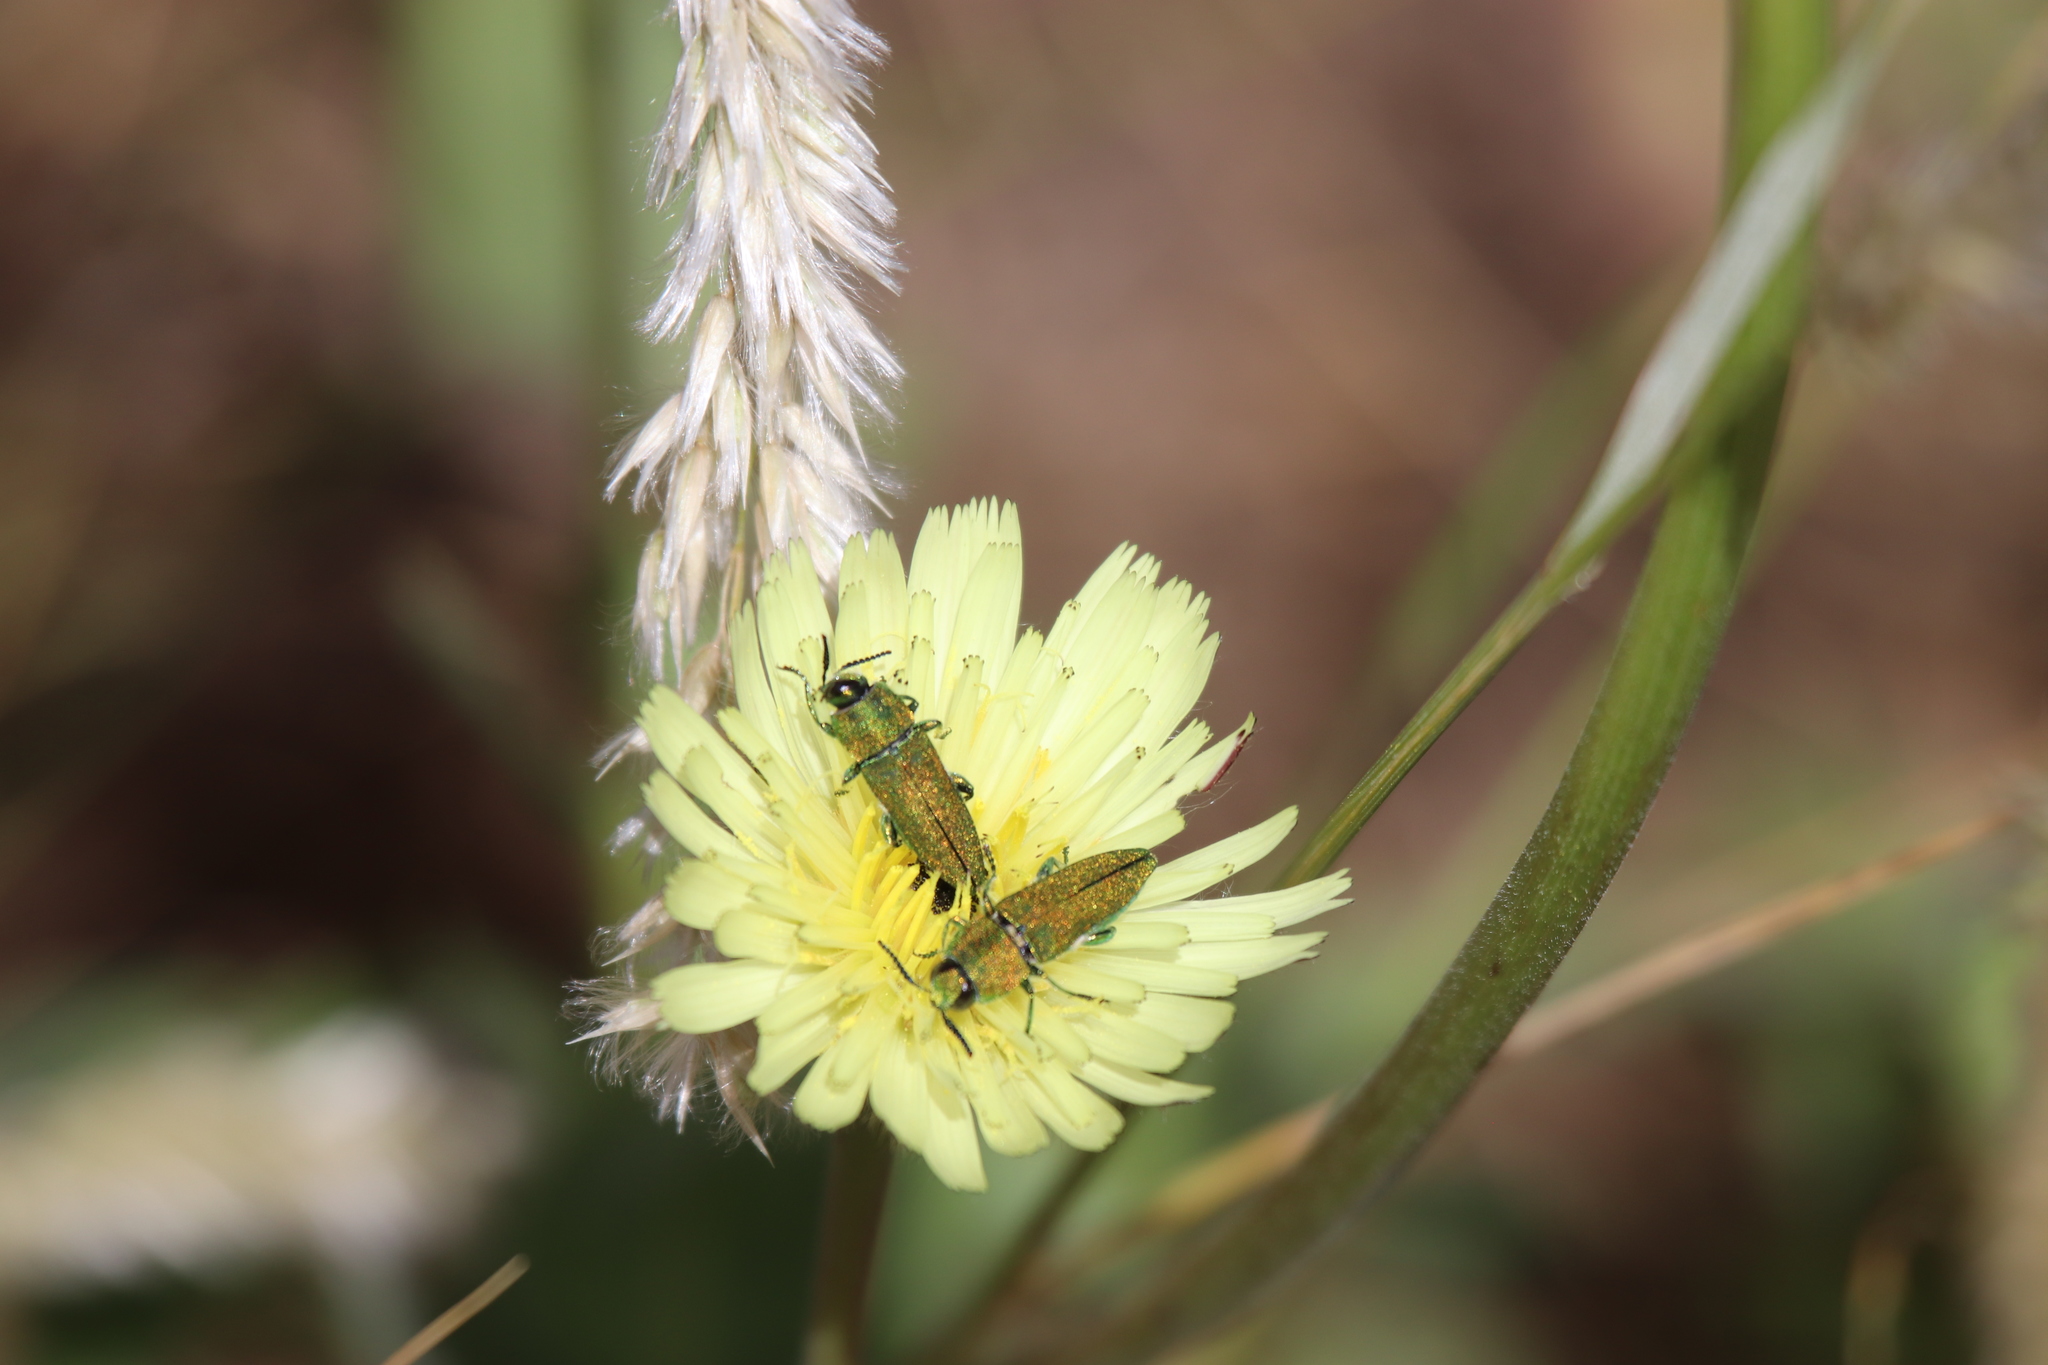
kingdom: Animalia
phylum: Arthropoda
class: Insecta
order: Coleoptera
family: Buprestidae
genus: Anthaxia
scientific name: Anthaxia hungarica
